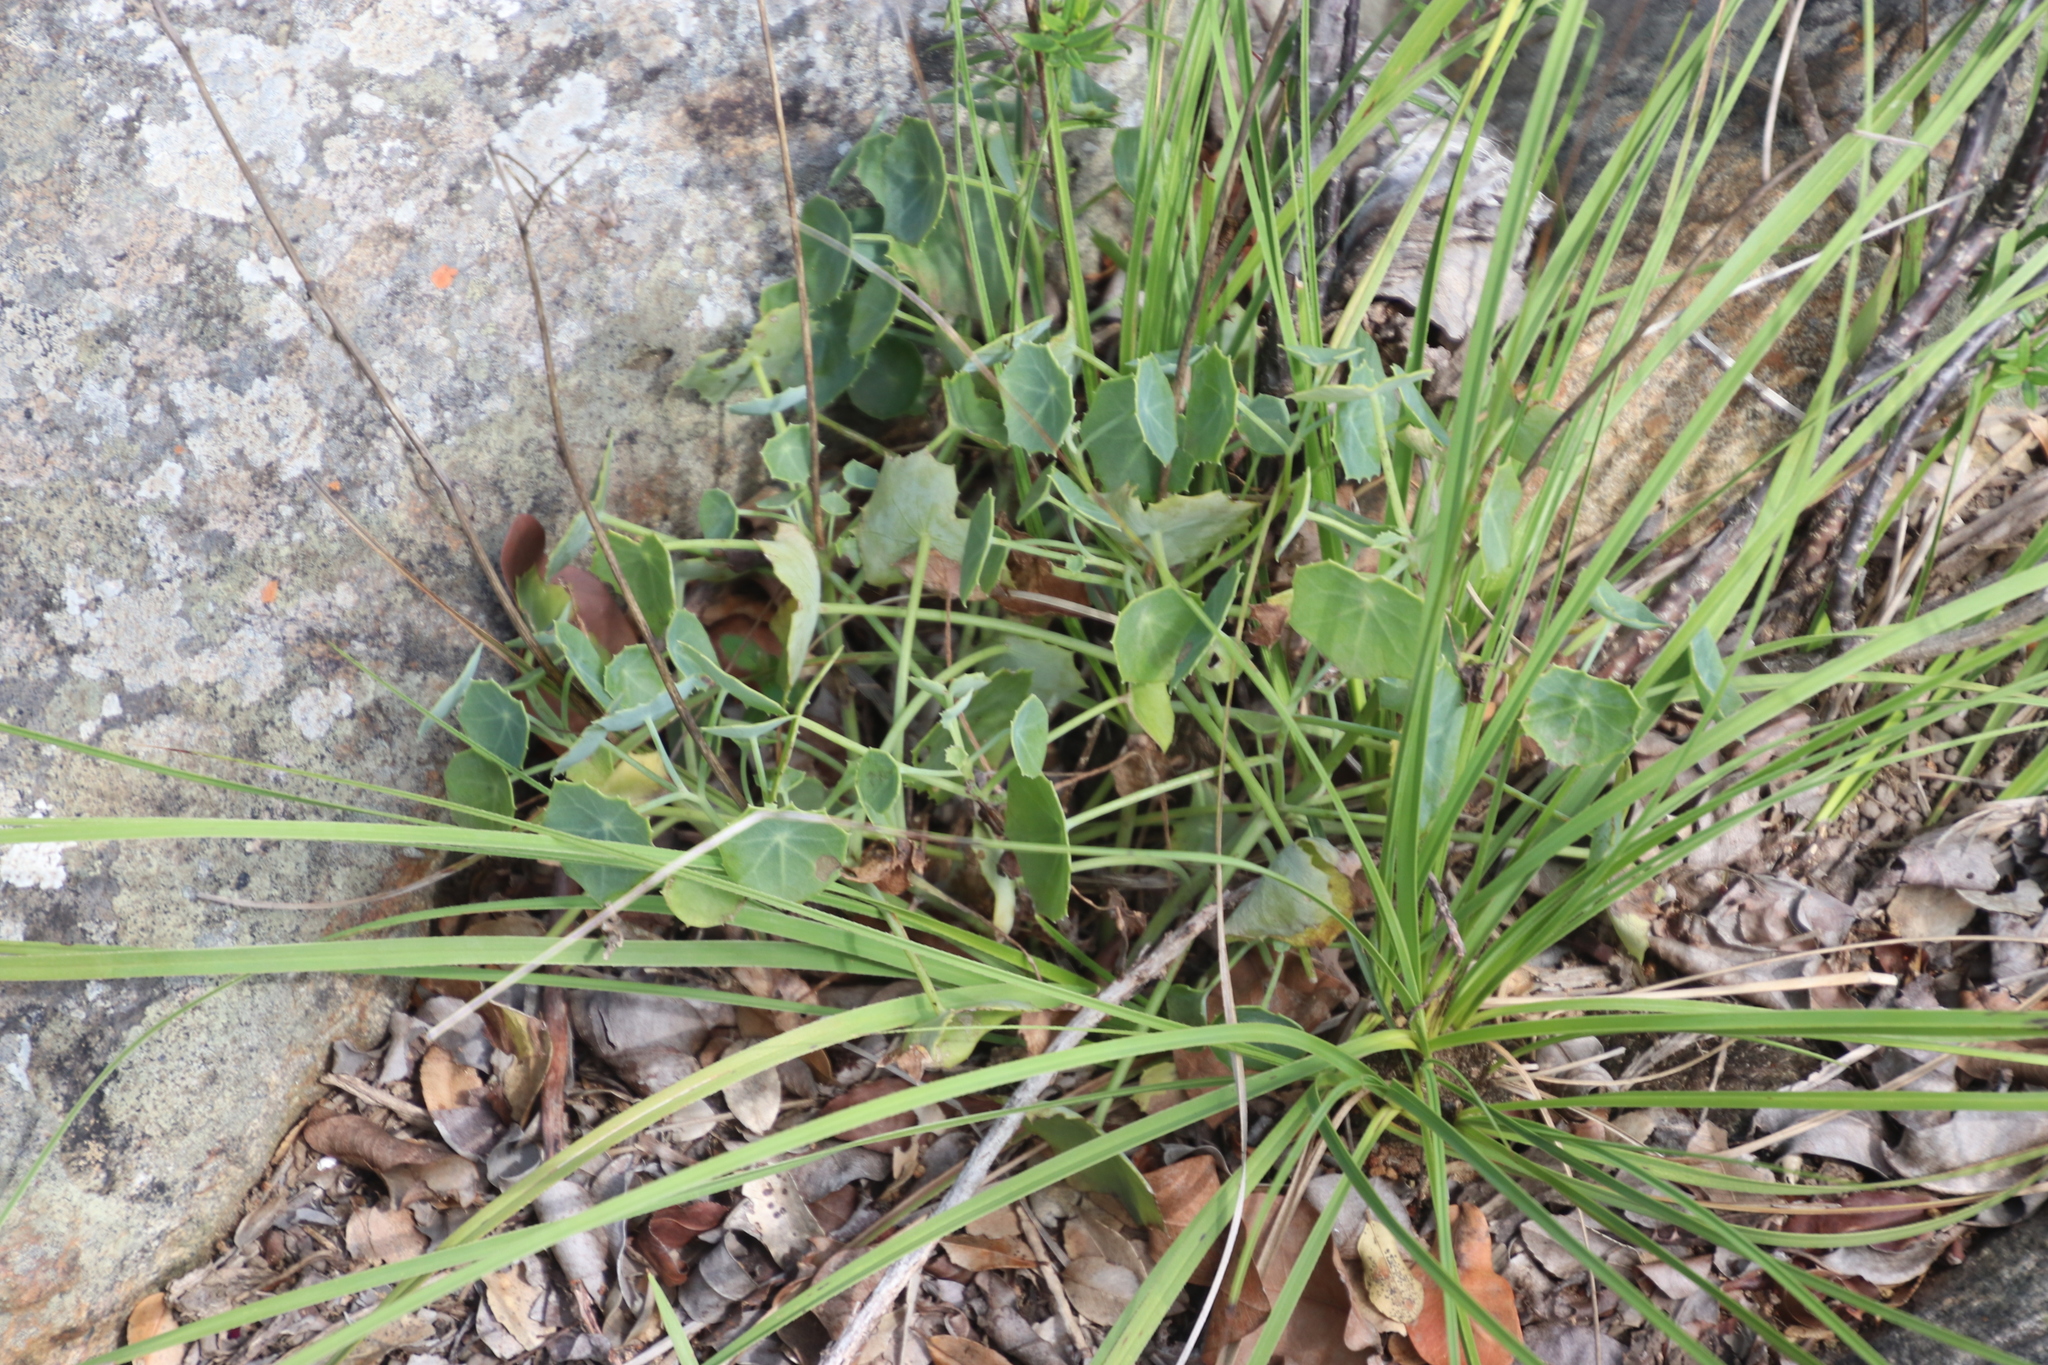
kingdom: Plantae
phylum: Tracheophyta
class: Magnoliopsida
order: Asterales
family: Asteraceae
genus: Senecio
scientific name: Senecio oxyriifolius
